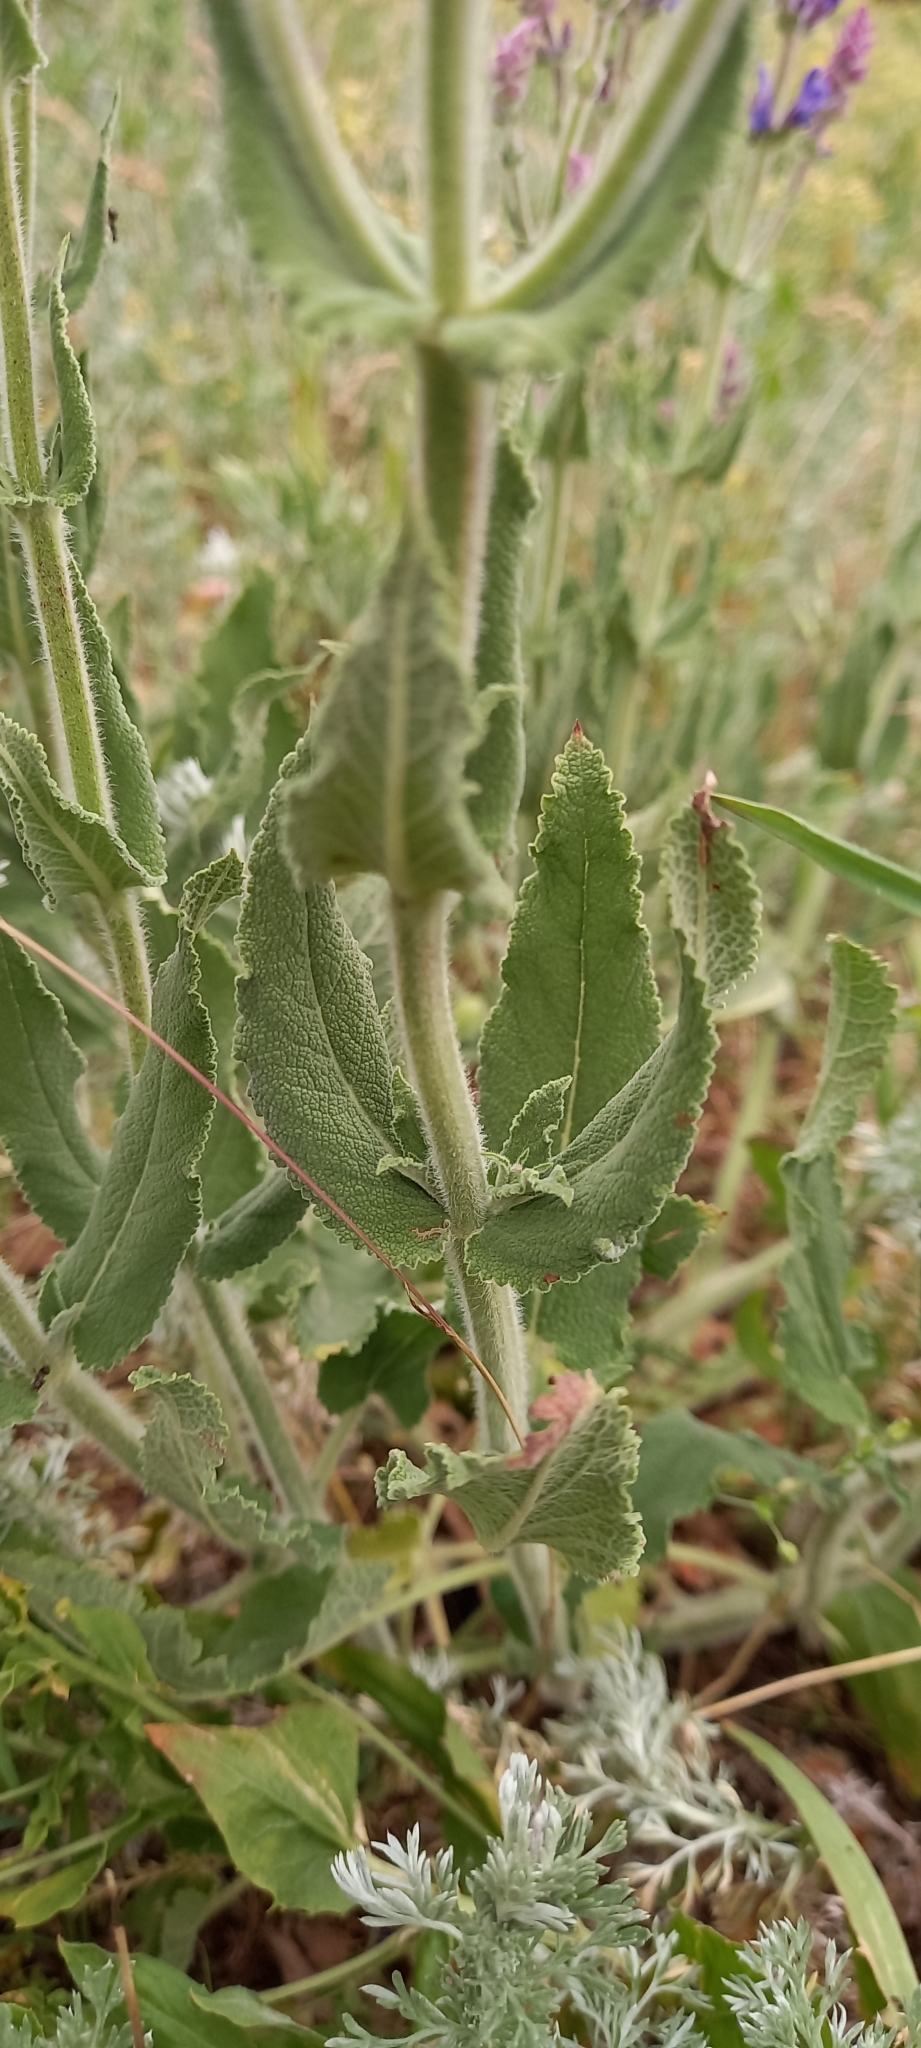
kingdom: Plantae
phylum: Tracheophyta
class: Magnoliopsida
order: Lamiales
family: Lamiaceae
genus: Salvia
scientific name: Salvia nemorosa
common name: Balkan clary
